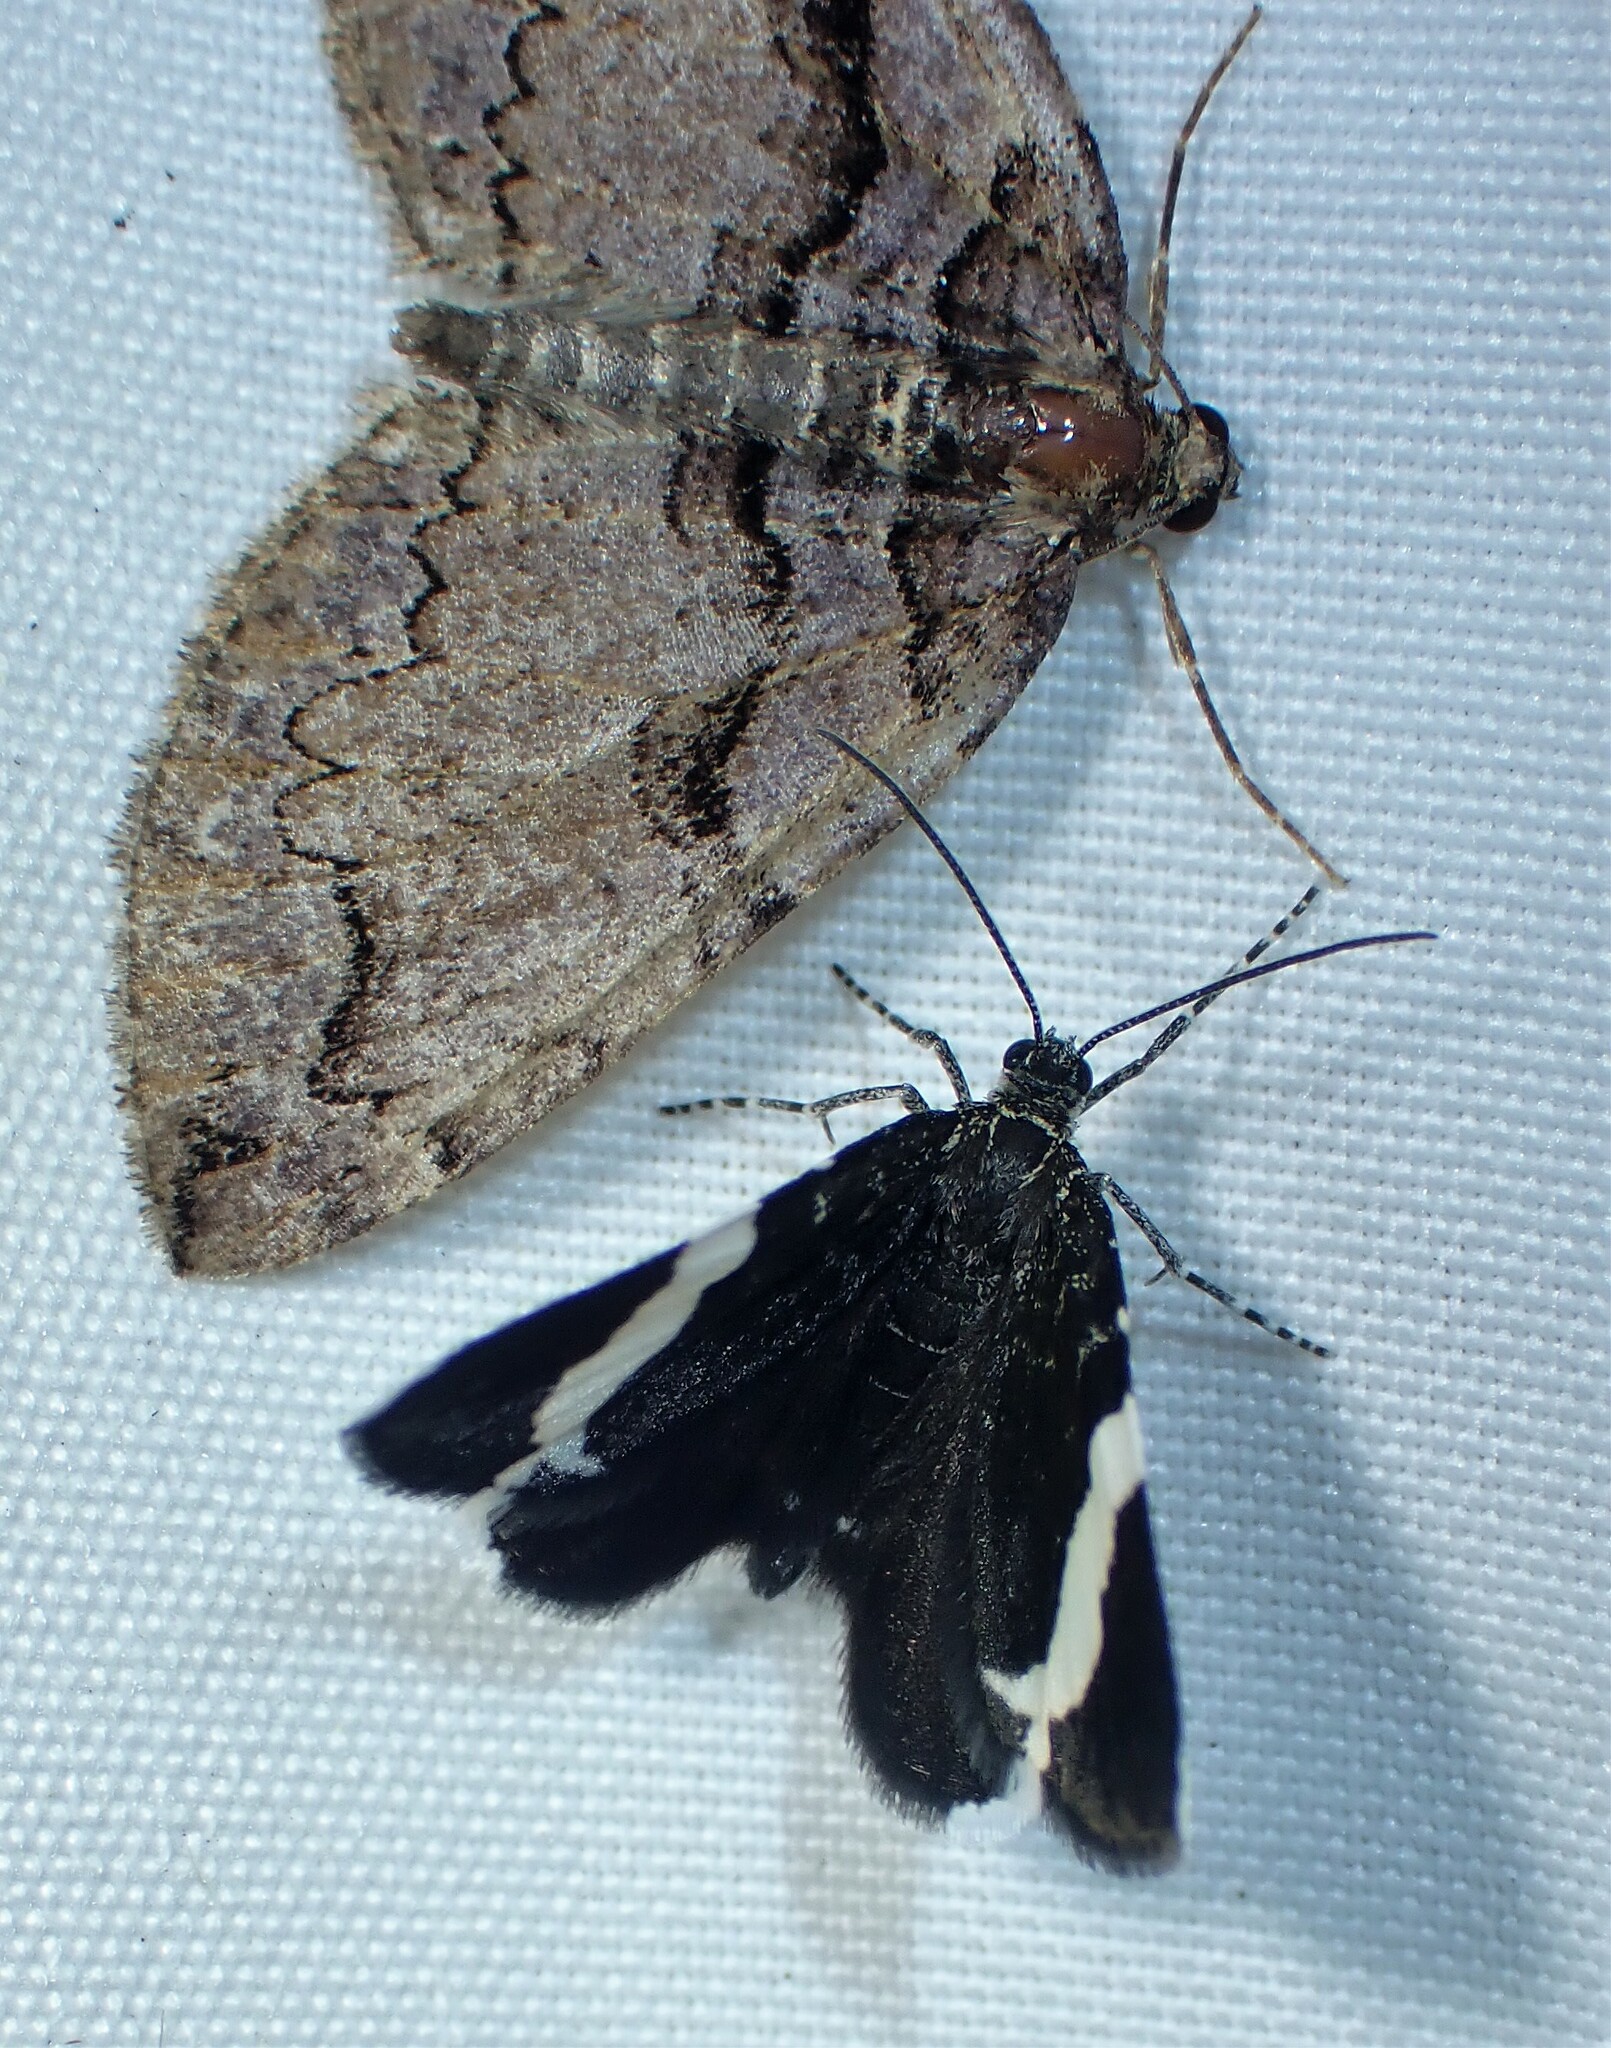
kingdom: Animalia
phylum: Arthropoda
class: Insecta
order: Lepidoptera
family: Geometridae
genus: Trichodezia
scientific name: Trichodezia albovittata
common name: White striped black
